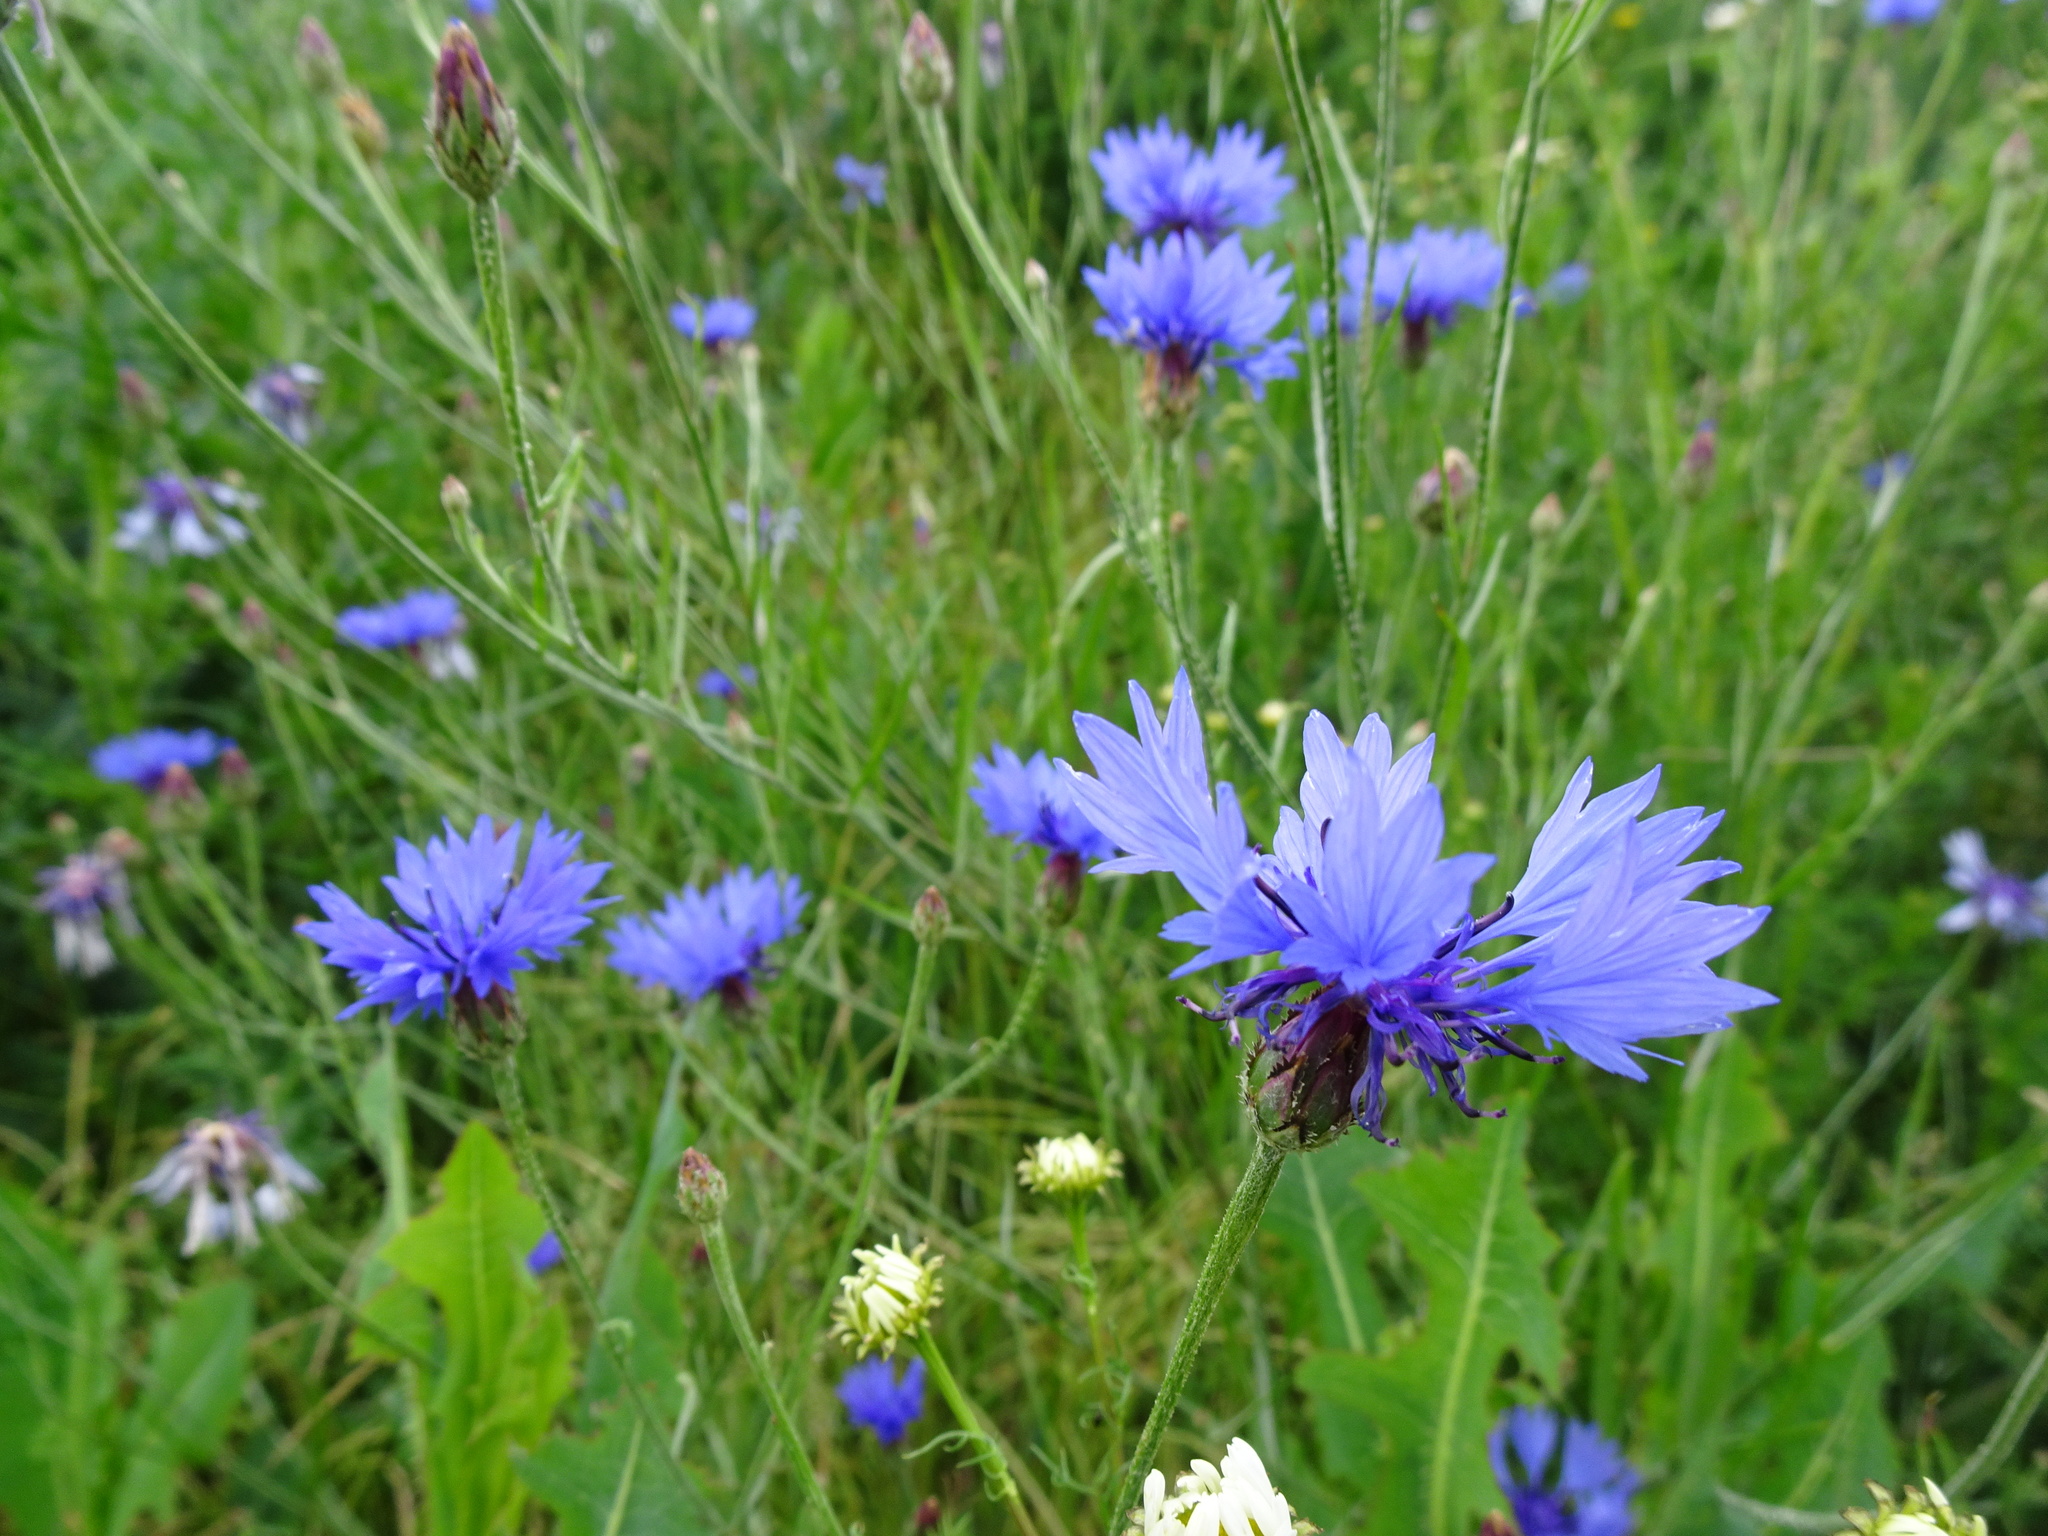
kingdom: Plantae
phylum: Tracheophyta
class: Magnoliopsida
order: Asterales
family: Asteraceae
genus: Centaurea
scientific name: Centaurea cyanus
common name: Cornflower
